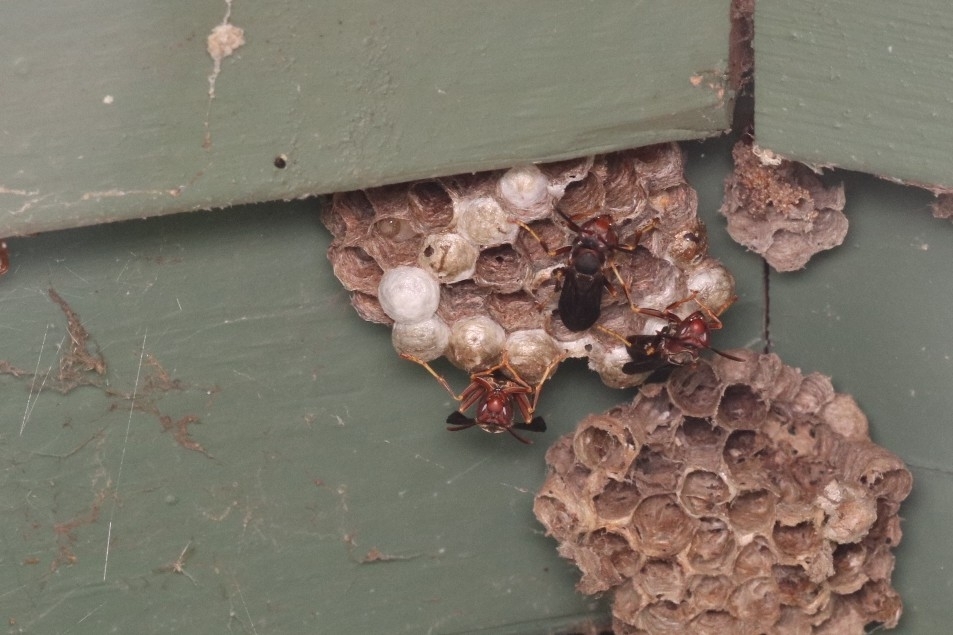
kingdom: Animalia
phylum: Arthropoda
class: Insecta
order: Hymenoptera
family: Eumenidae
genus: Polistes
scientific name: Polistes metricus
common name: Metric paper wasp
